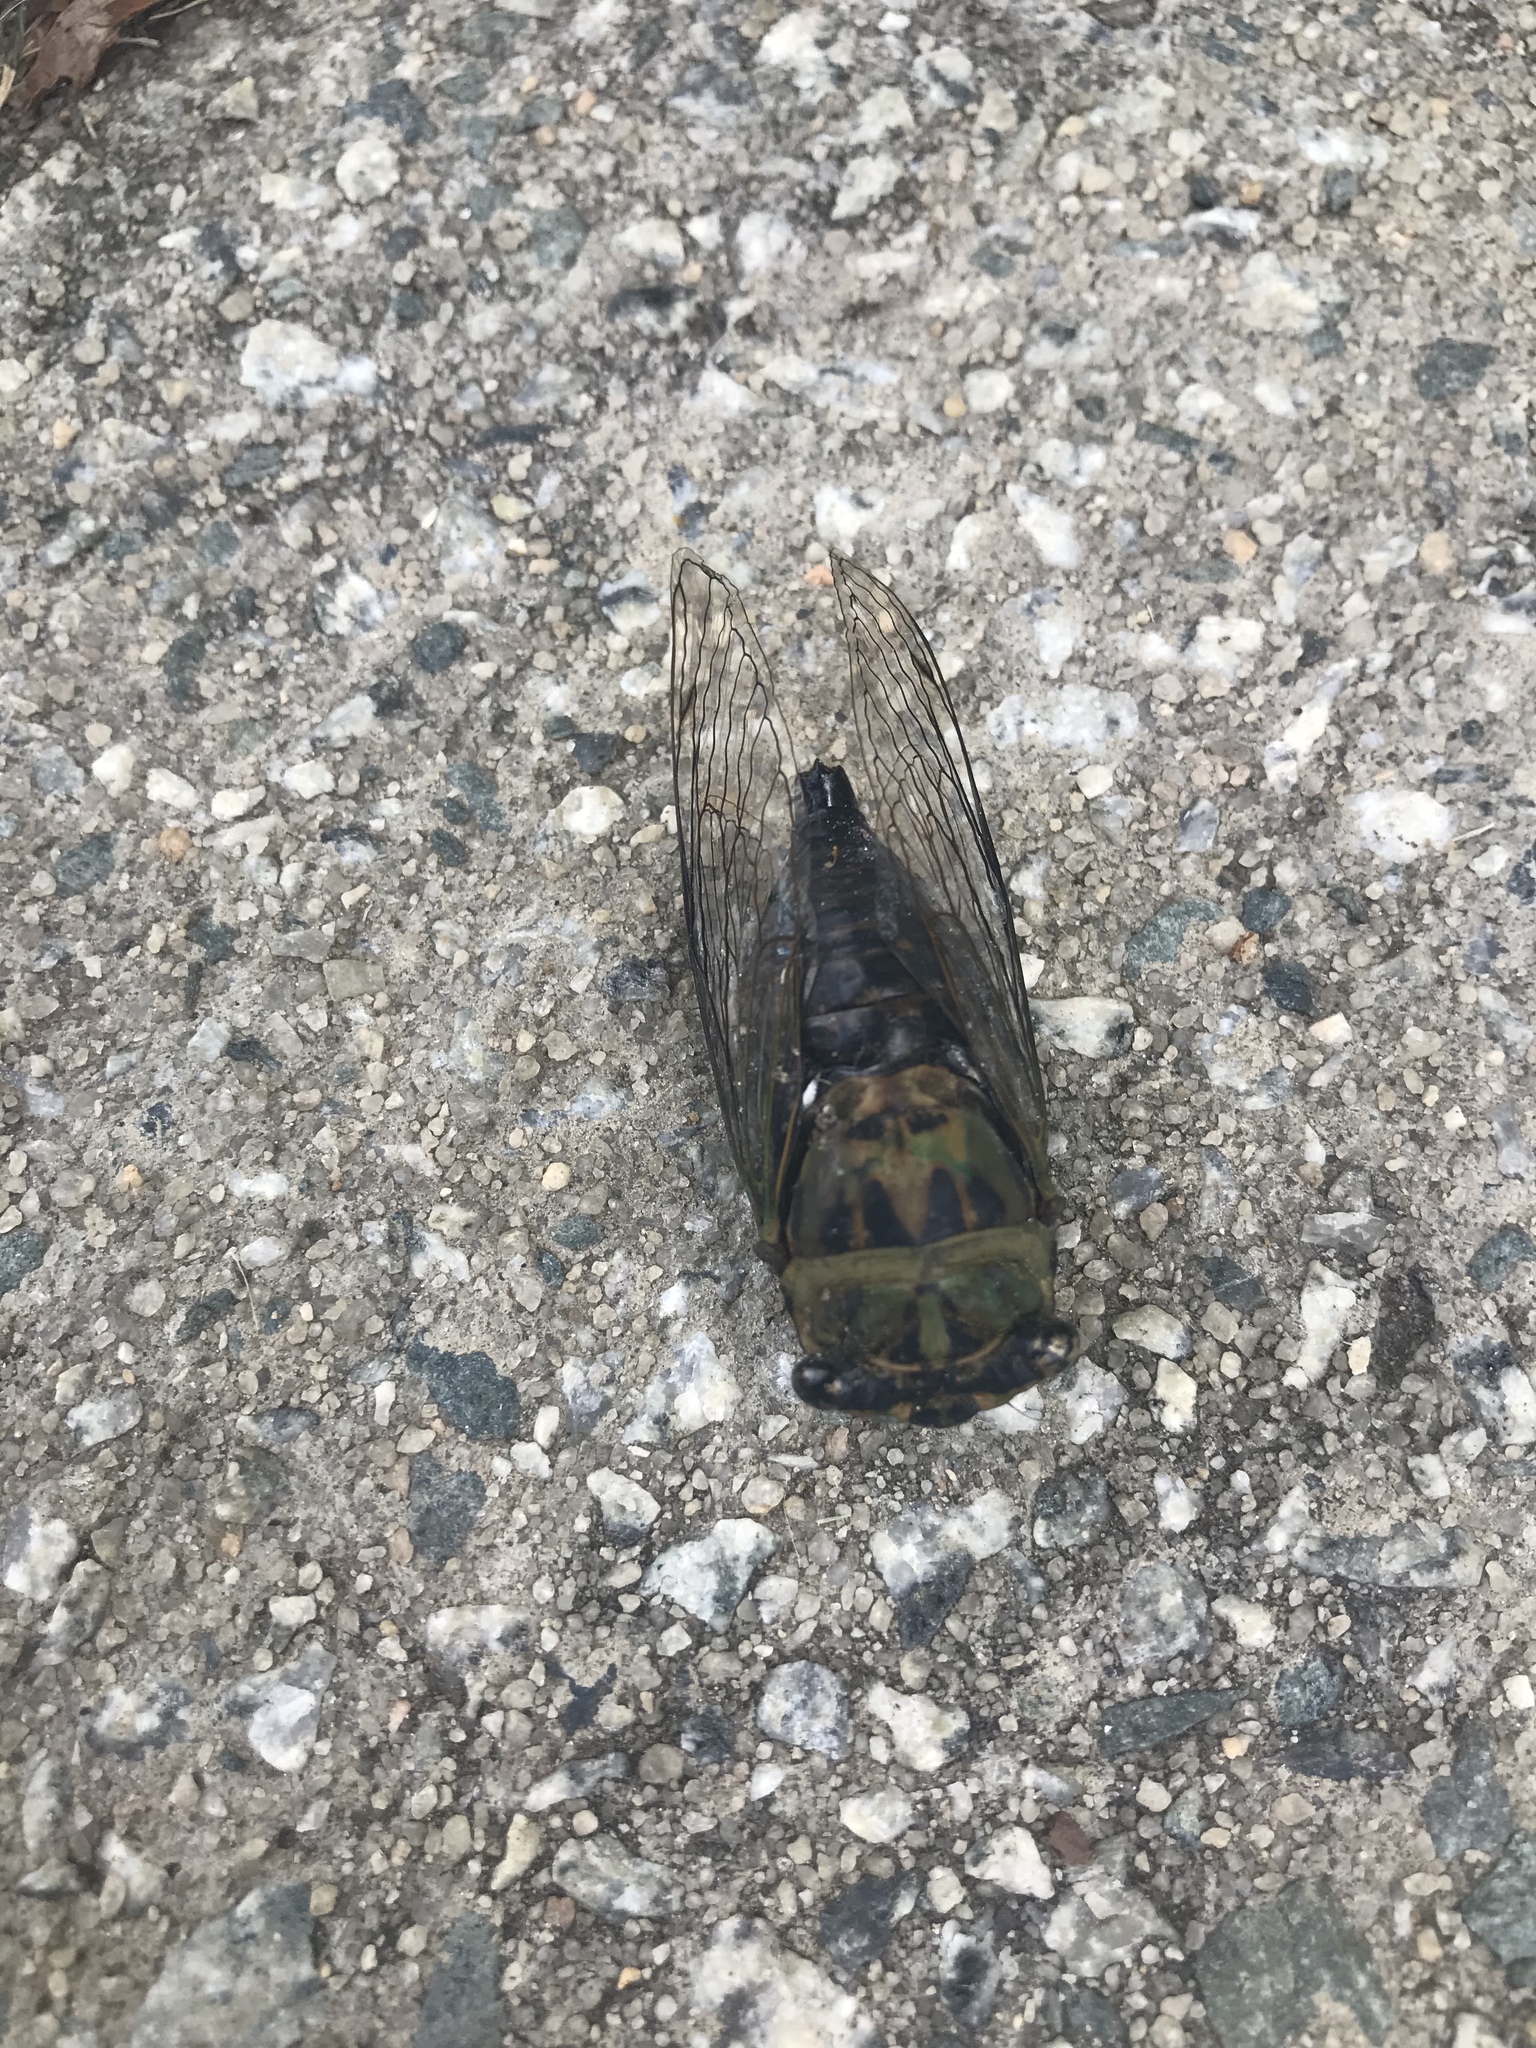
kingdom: Animalia
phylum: Arthropoda
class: Insecta
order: Hemiptera
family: Cicadidae
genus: Neotibicen
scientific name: Neotibicen winnemanna
